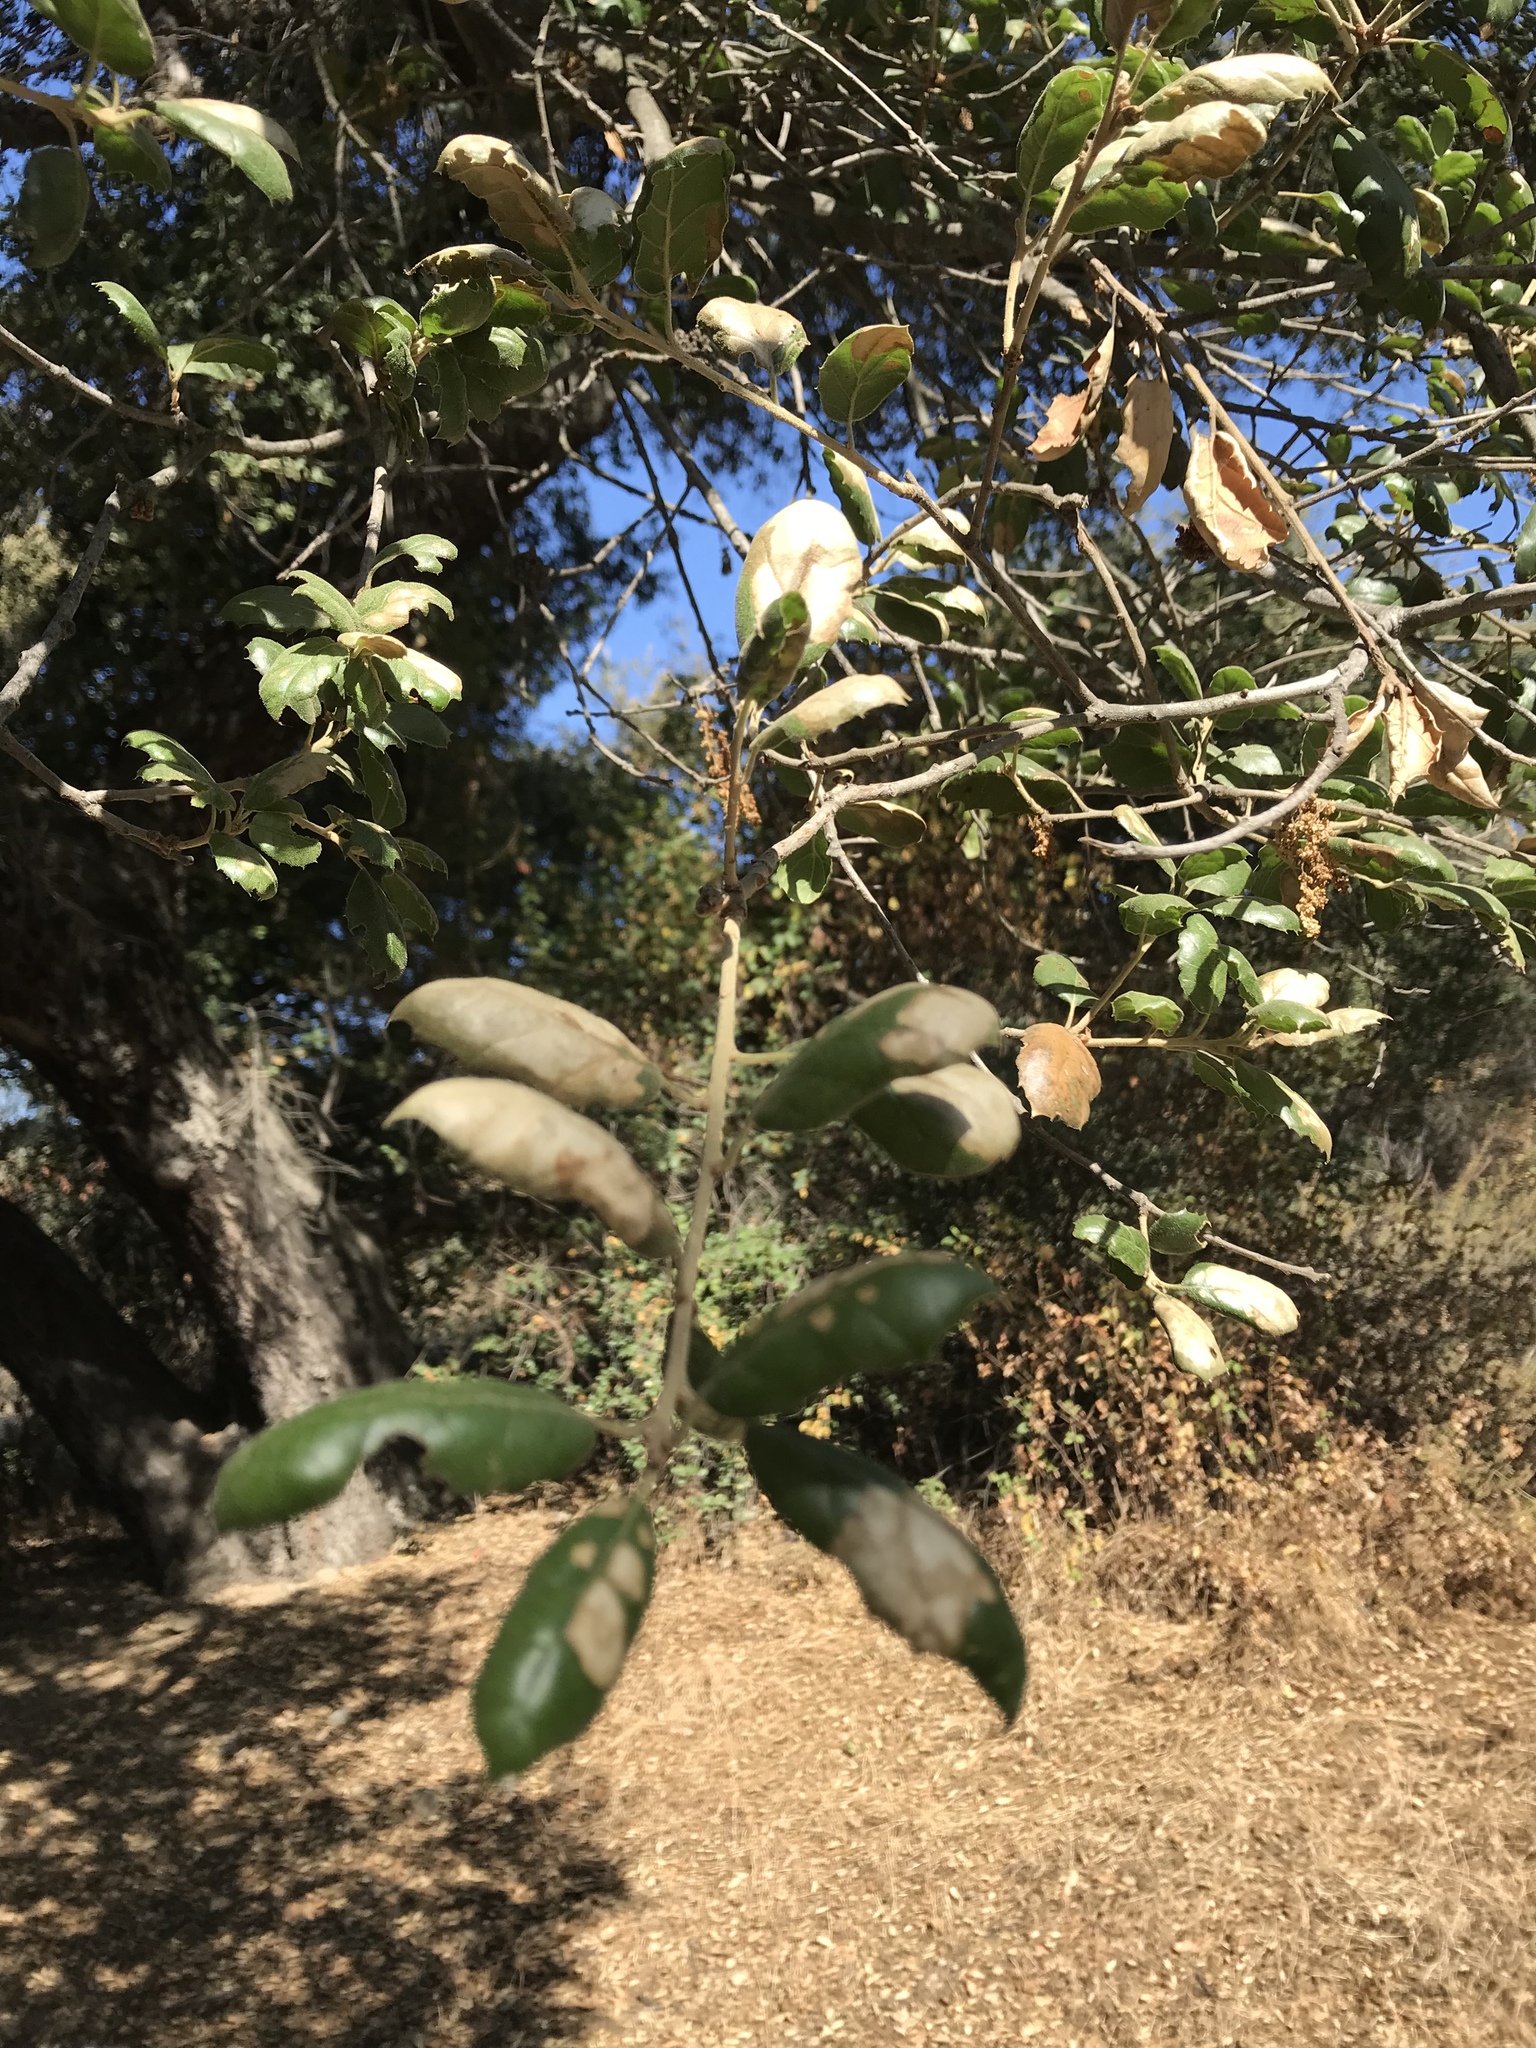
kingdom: Plantae
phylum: Tracheophyta
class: Magnoliopsida
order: Fagales
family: Fagaceae
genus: Quercus
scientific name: Quercus agrifolia
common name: California live oak
